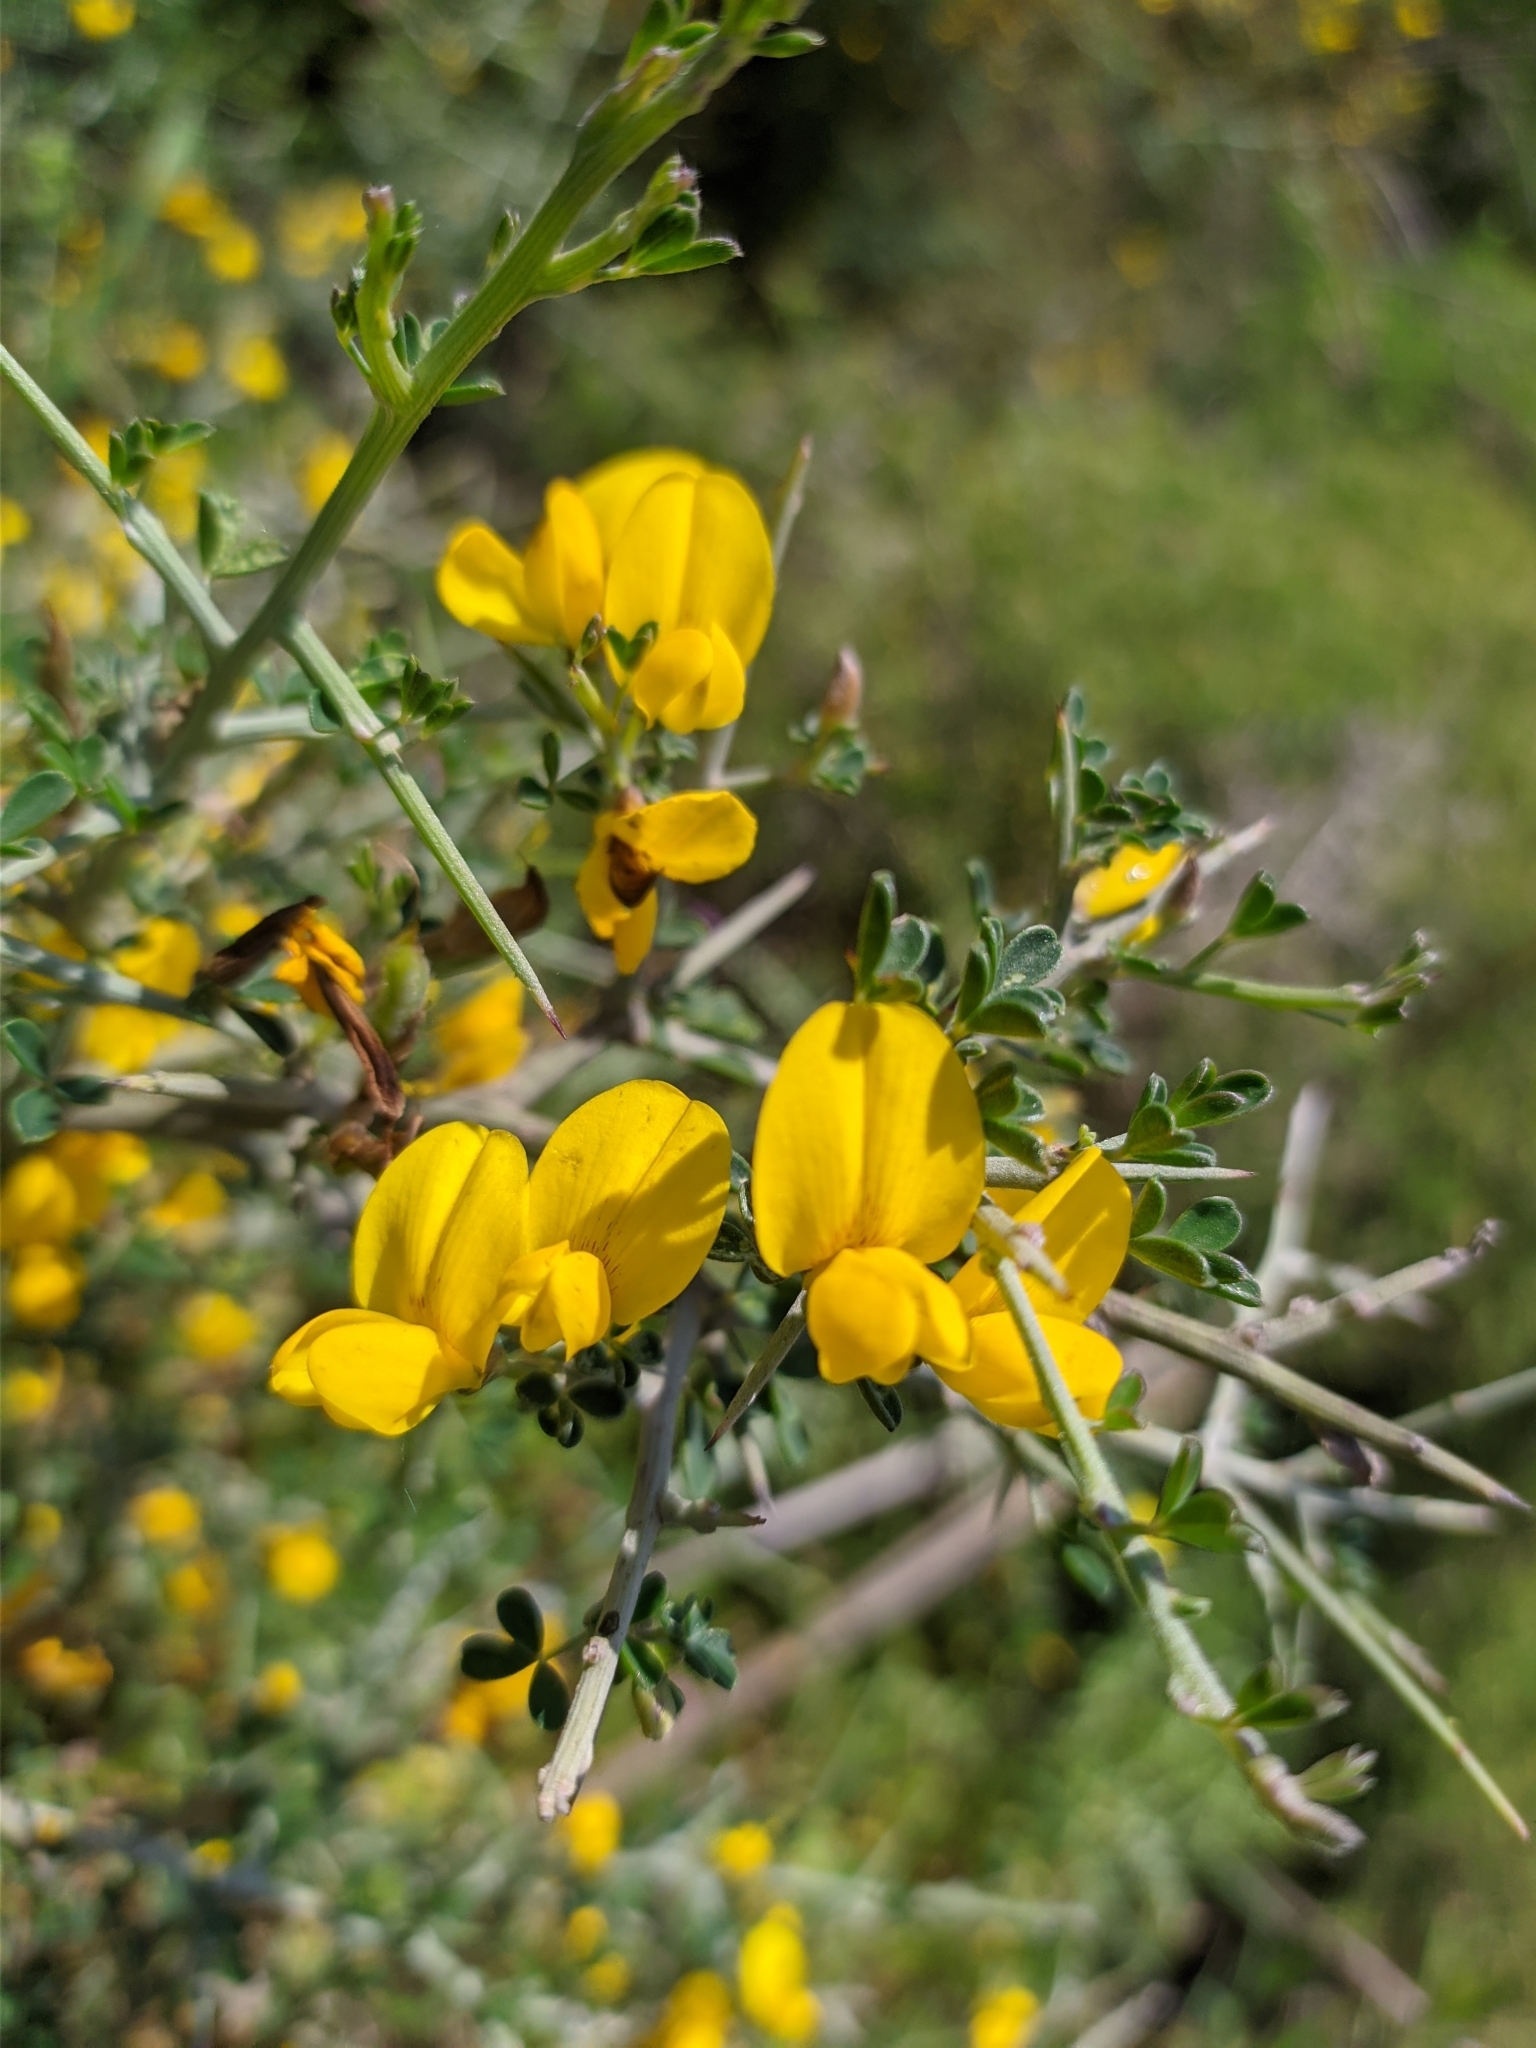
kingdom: Plantae
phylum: Tracheophyta
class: Magnoliopsida
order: Fabales
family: Fabaceae
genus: Calicotome
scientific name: Calicotome villosa
